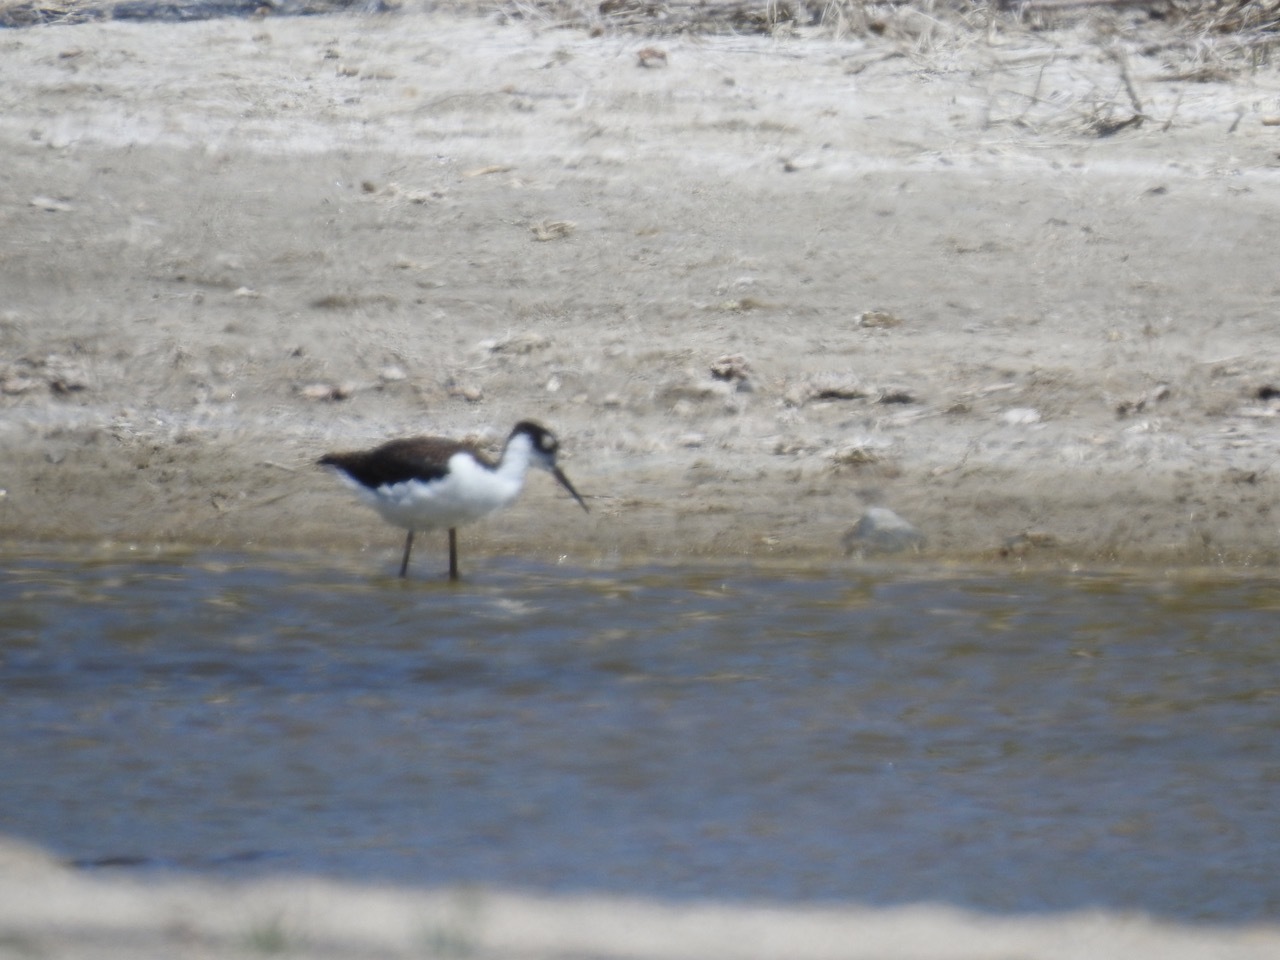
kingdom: Animalia
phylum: Chordata
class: Aves
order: Charadriiformes
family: Recurvirostridae
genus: Himantopus
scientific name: Himantopus mexicanus
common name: Black-necked stilt
